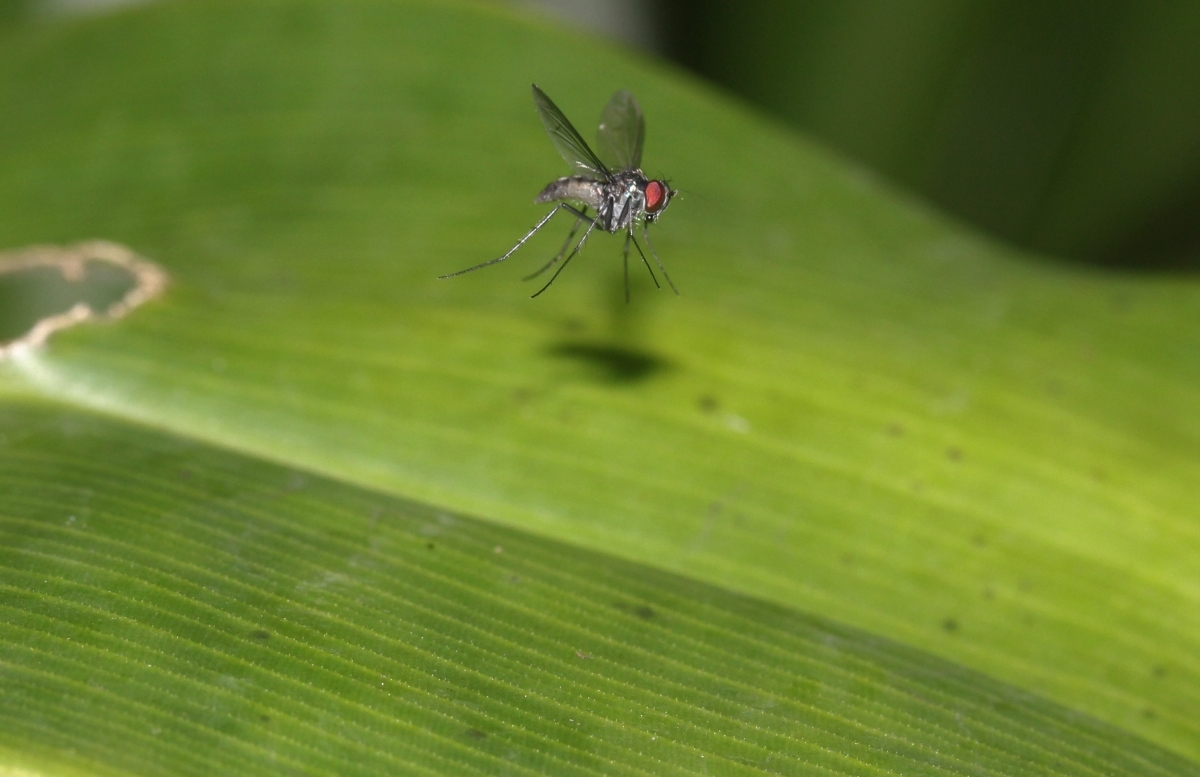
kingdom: Animalia
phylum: Arthropoda
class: Insecta
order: Diptera
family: Dolichopodidae
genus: Condylostylus
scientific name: Condylostylus
